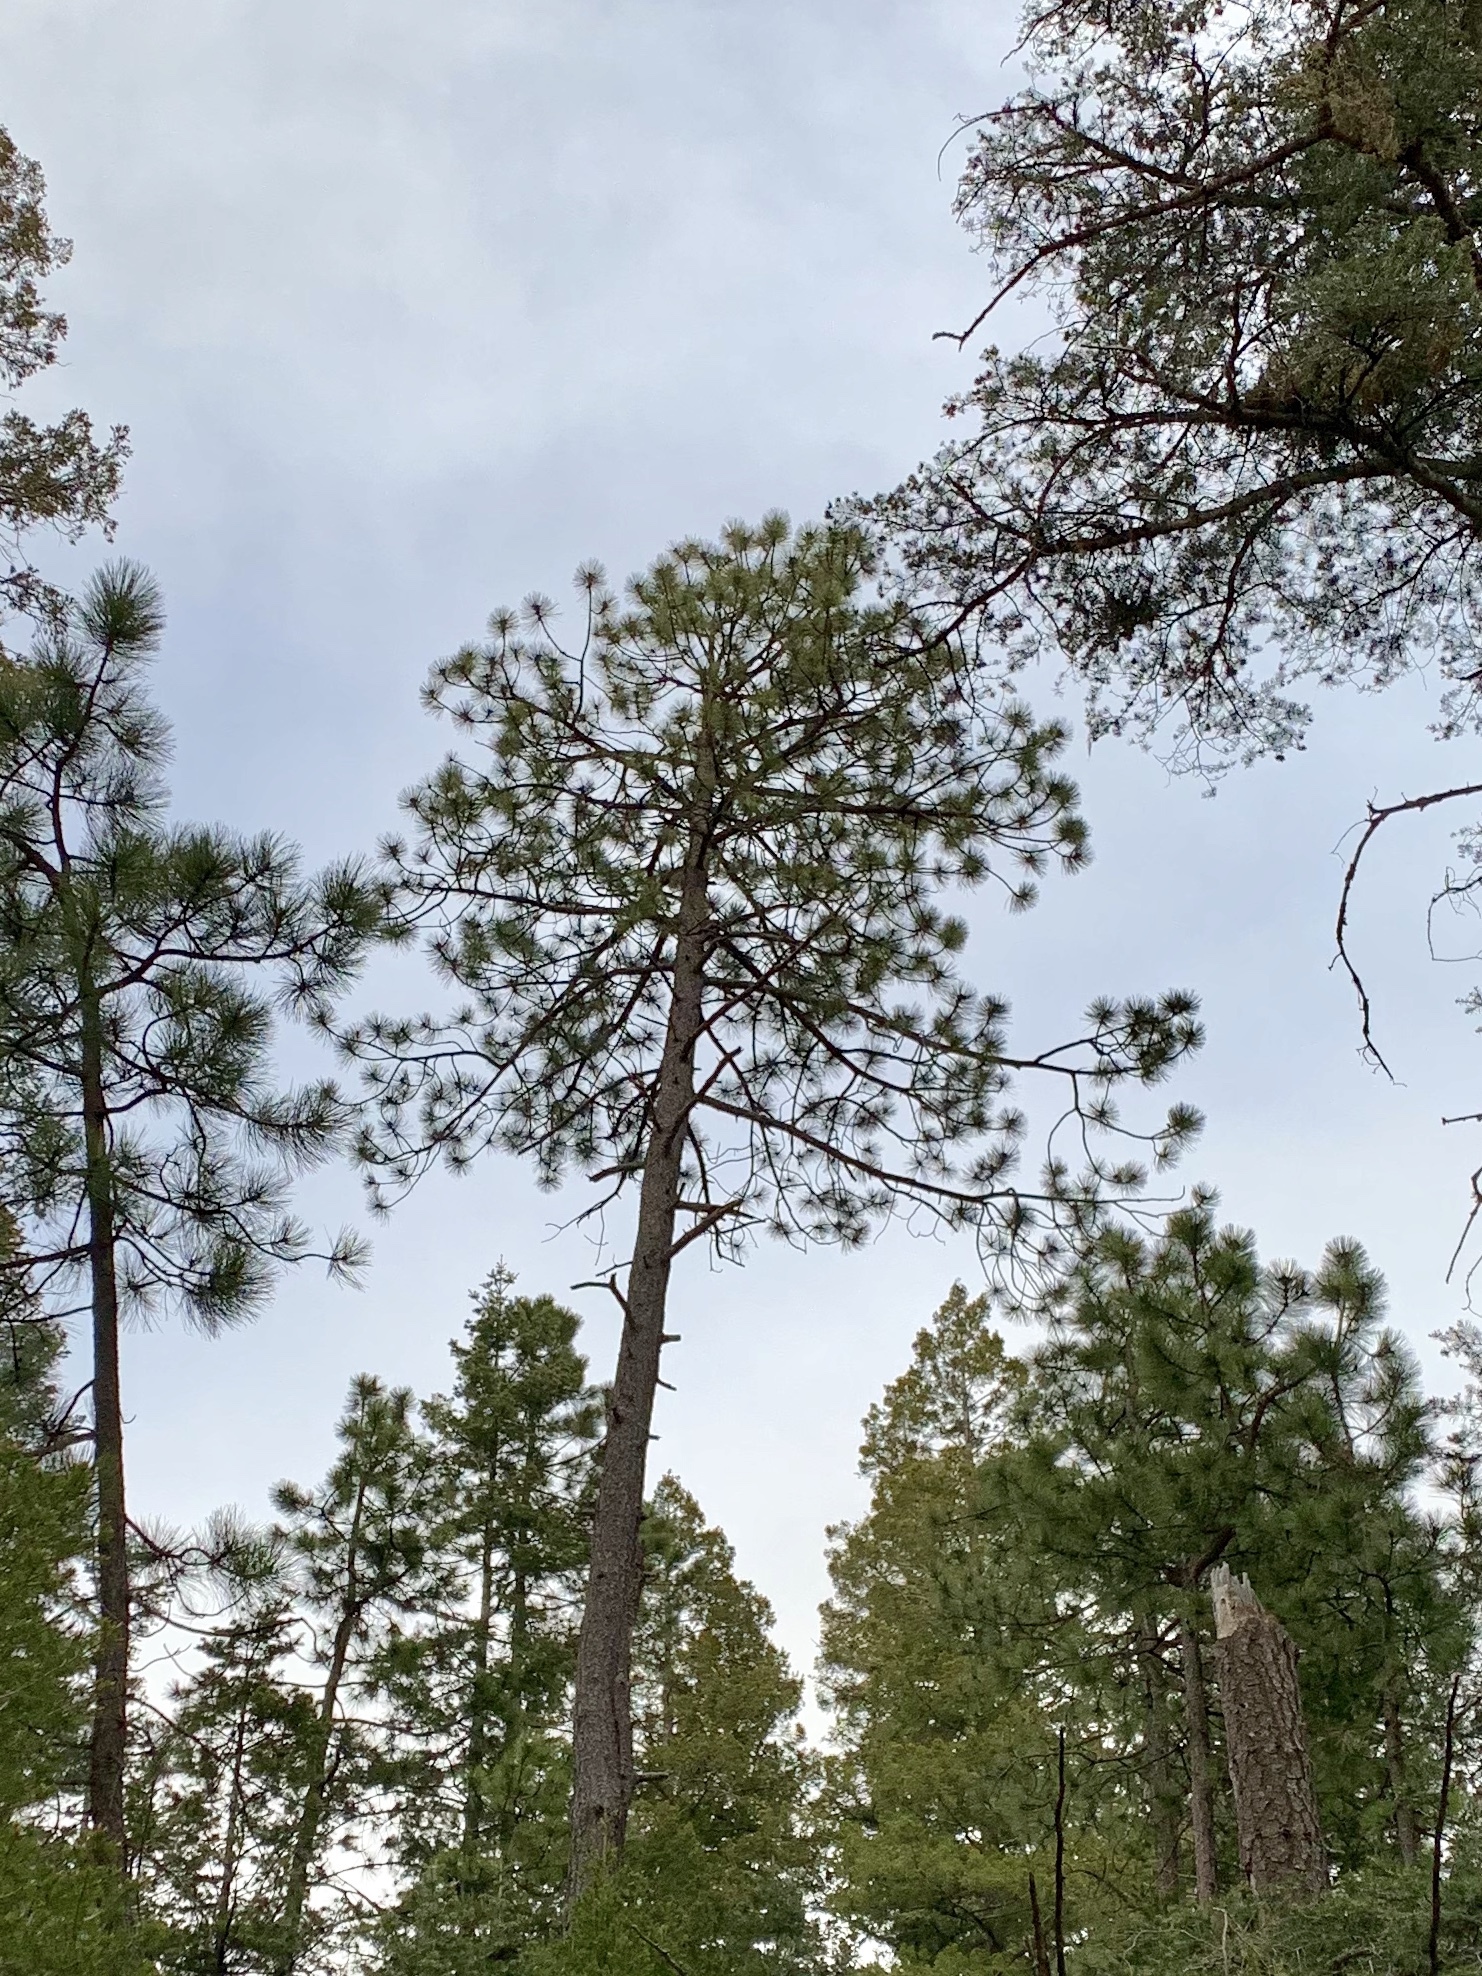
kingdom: Plantae
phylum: Tracheophyta
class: Pinopsida
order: Pinales
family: Pinaceae
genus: Pinus
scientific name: Pinus ponderosa
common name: Western yellow-pine
